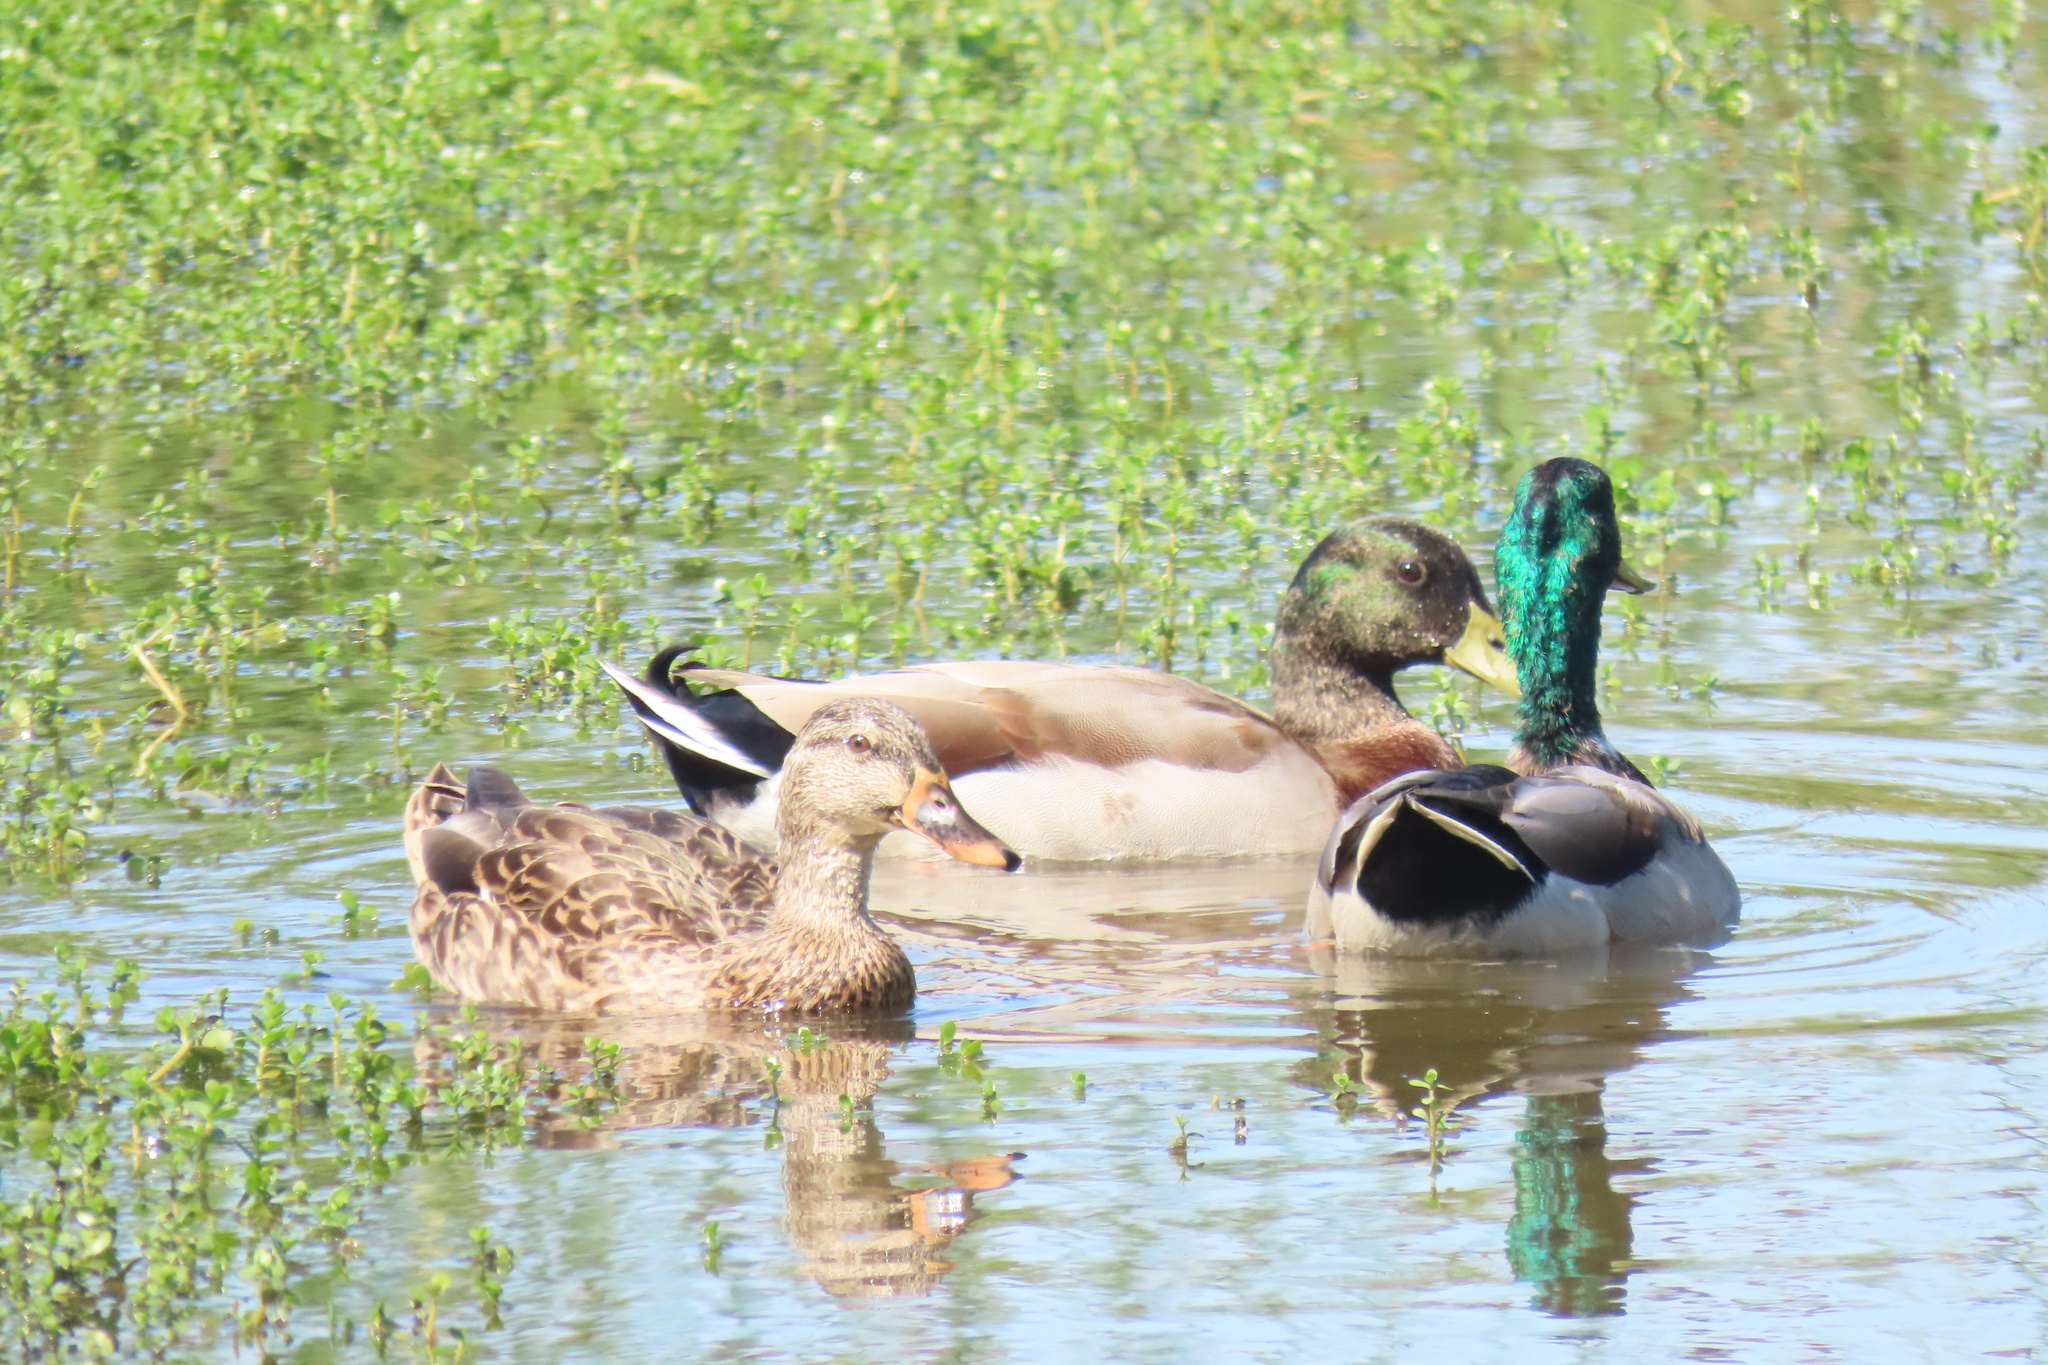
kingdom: Animalia
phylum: Chordata
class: Aves
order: Anseriformes
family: Anatidae
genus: Anas
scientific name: Anas platyrhynchos
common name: Mallard
